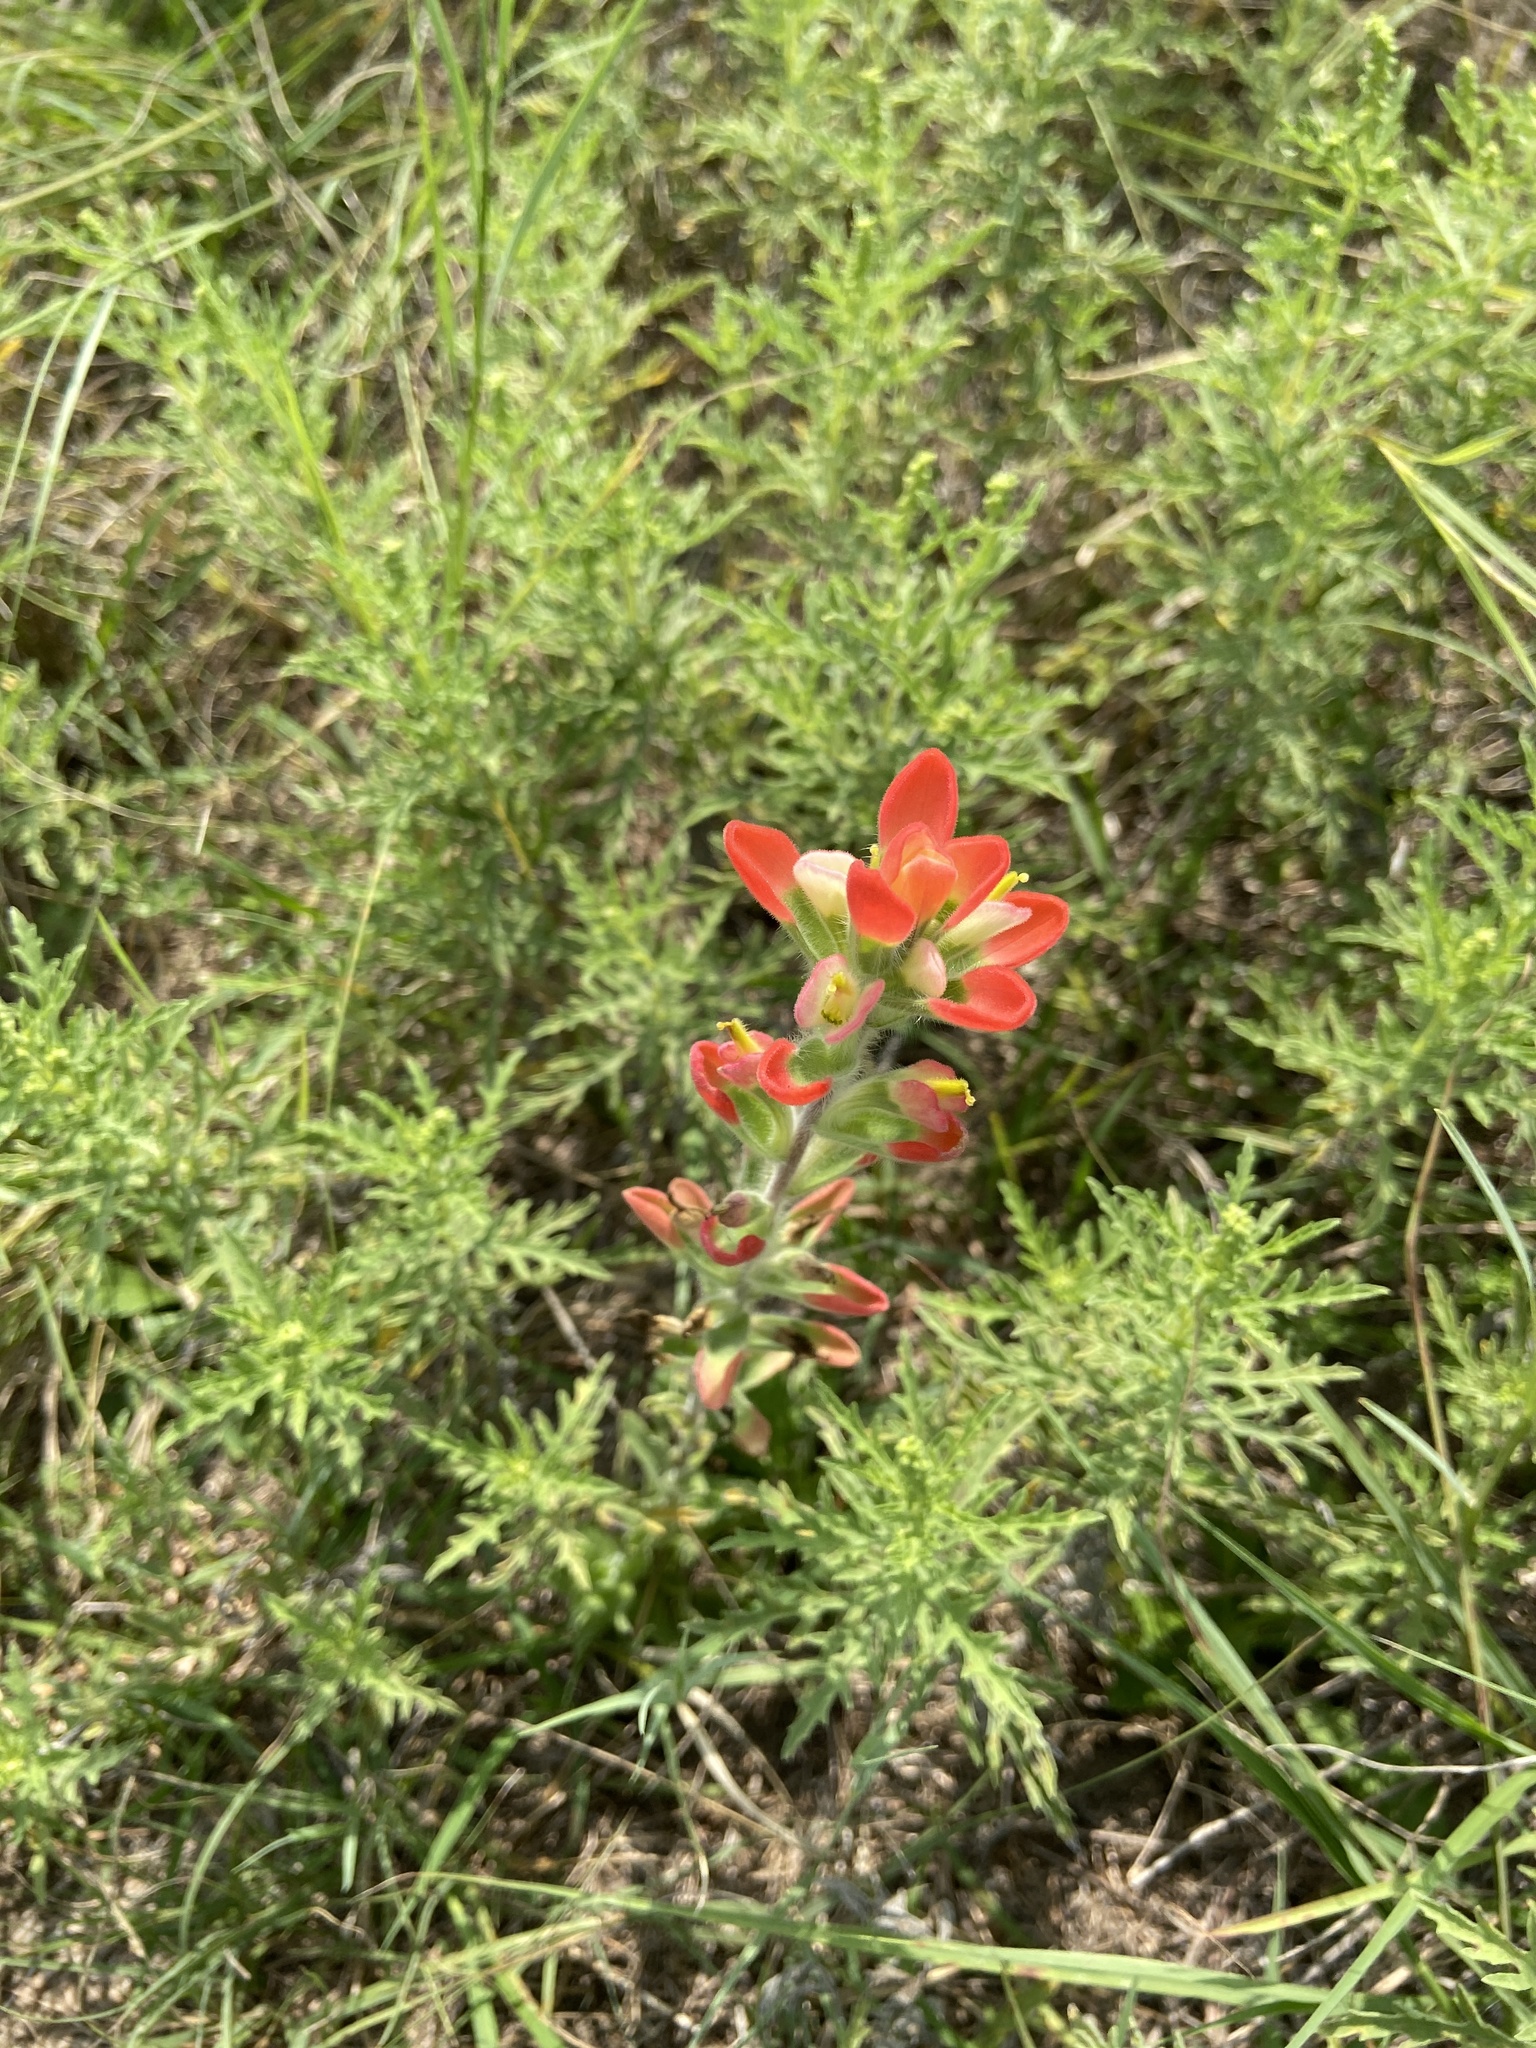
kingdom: Plantae
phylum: Tracheophyta
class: Magnoliopsida
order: Lamiales
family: Orobanchaceae
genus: Castilleja
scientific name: Castilleja indivisa
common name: Texas paintbrush
